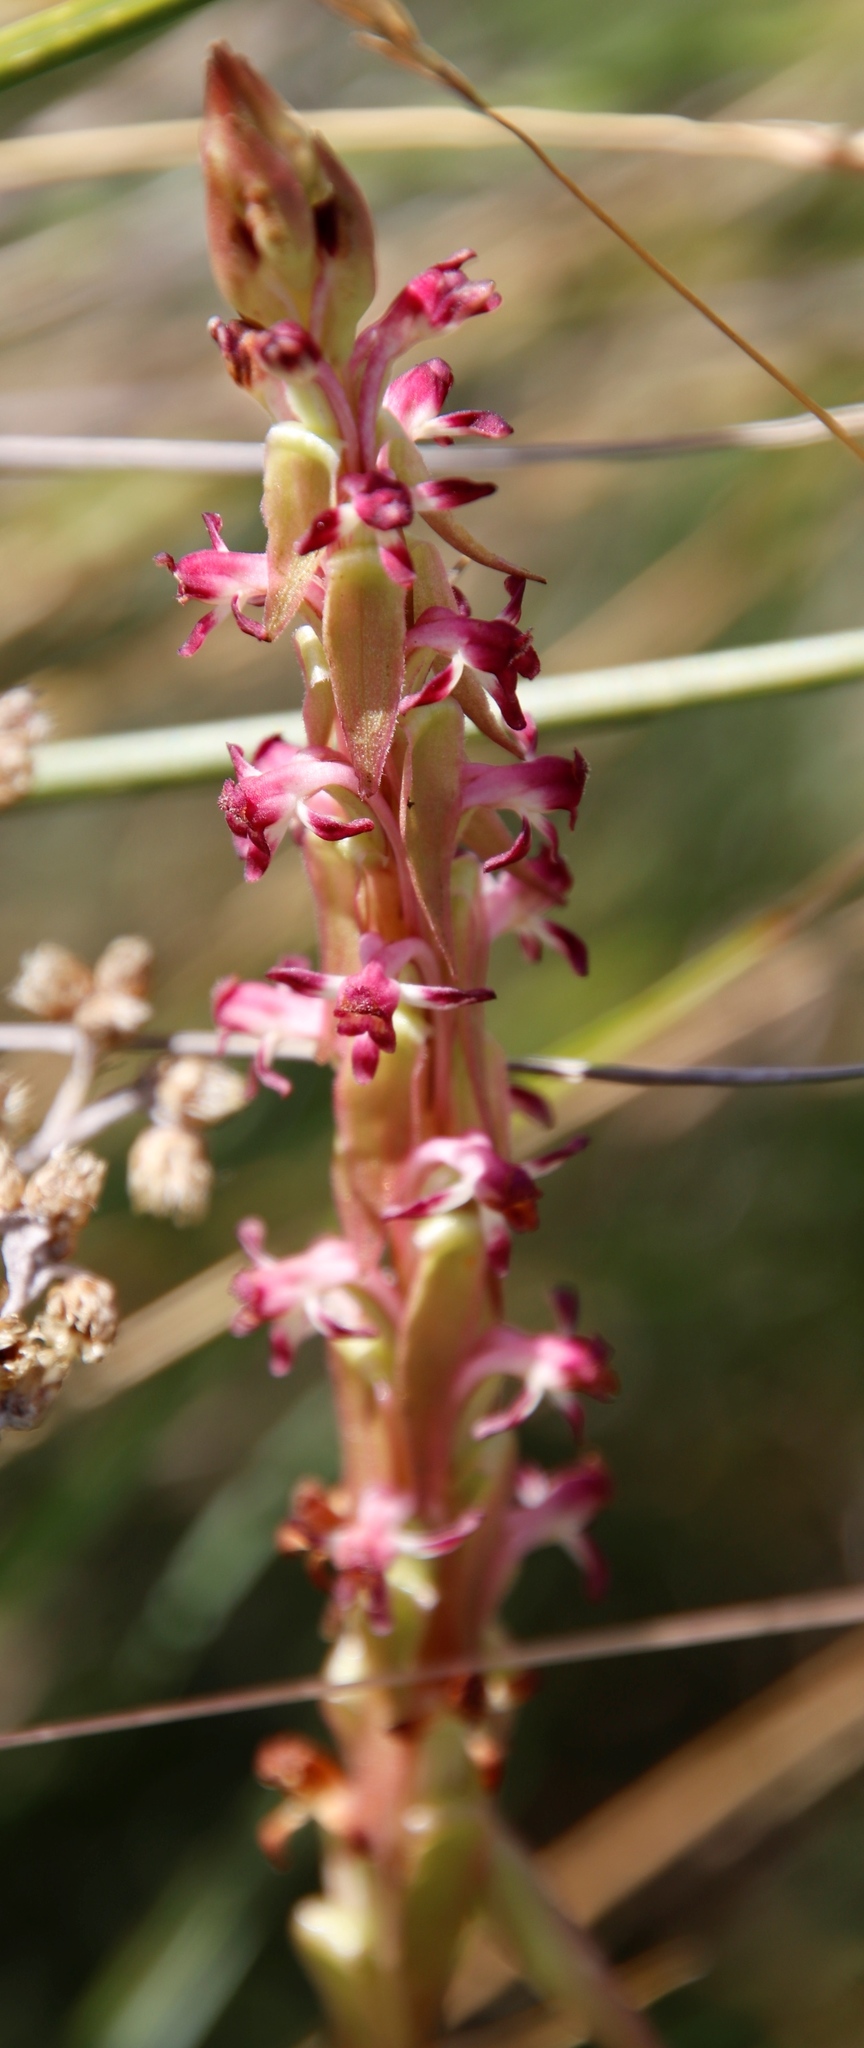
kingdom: Plantae
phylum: Tracheophyta
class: Liliopsida
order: Asparagales
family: Orchidaceae
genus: Satyrium
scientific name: Satyrium longicauda
